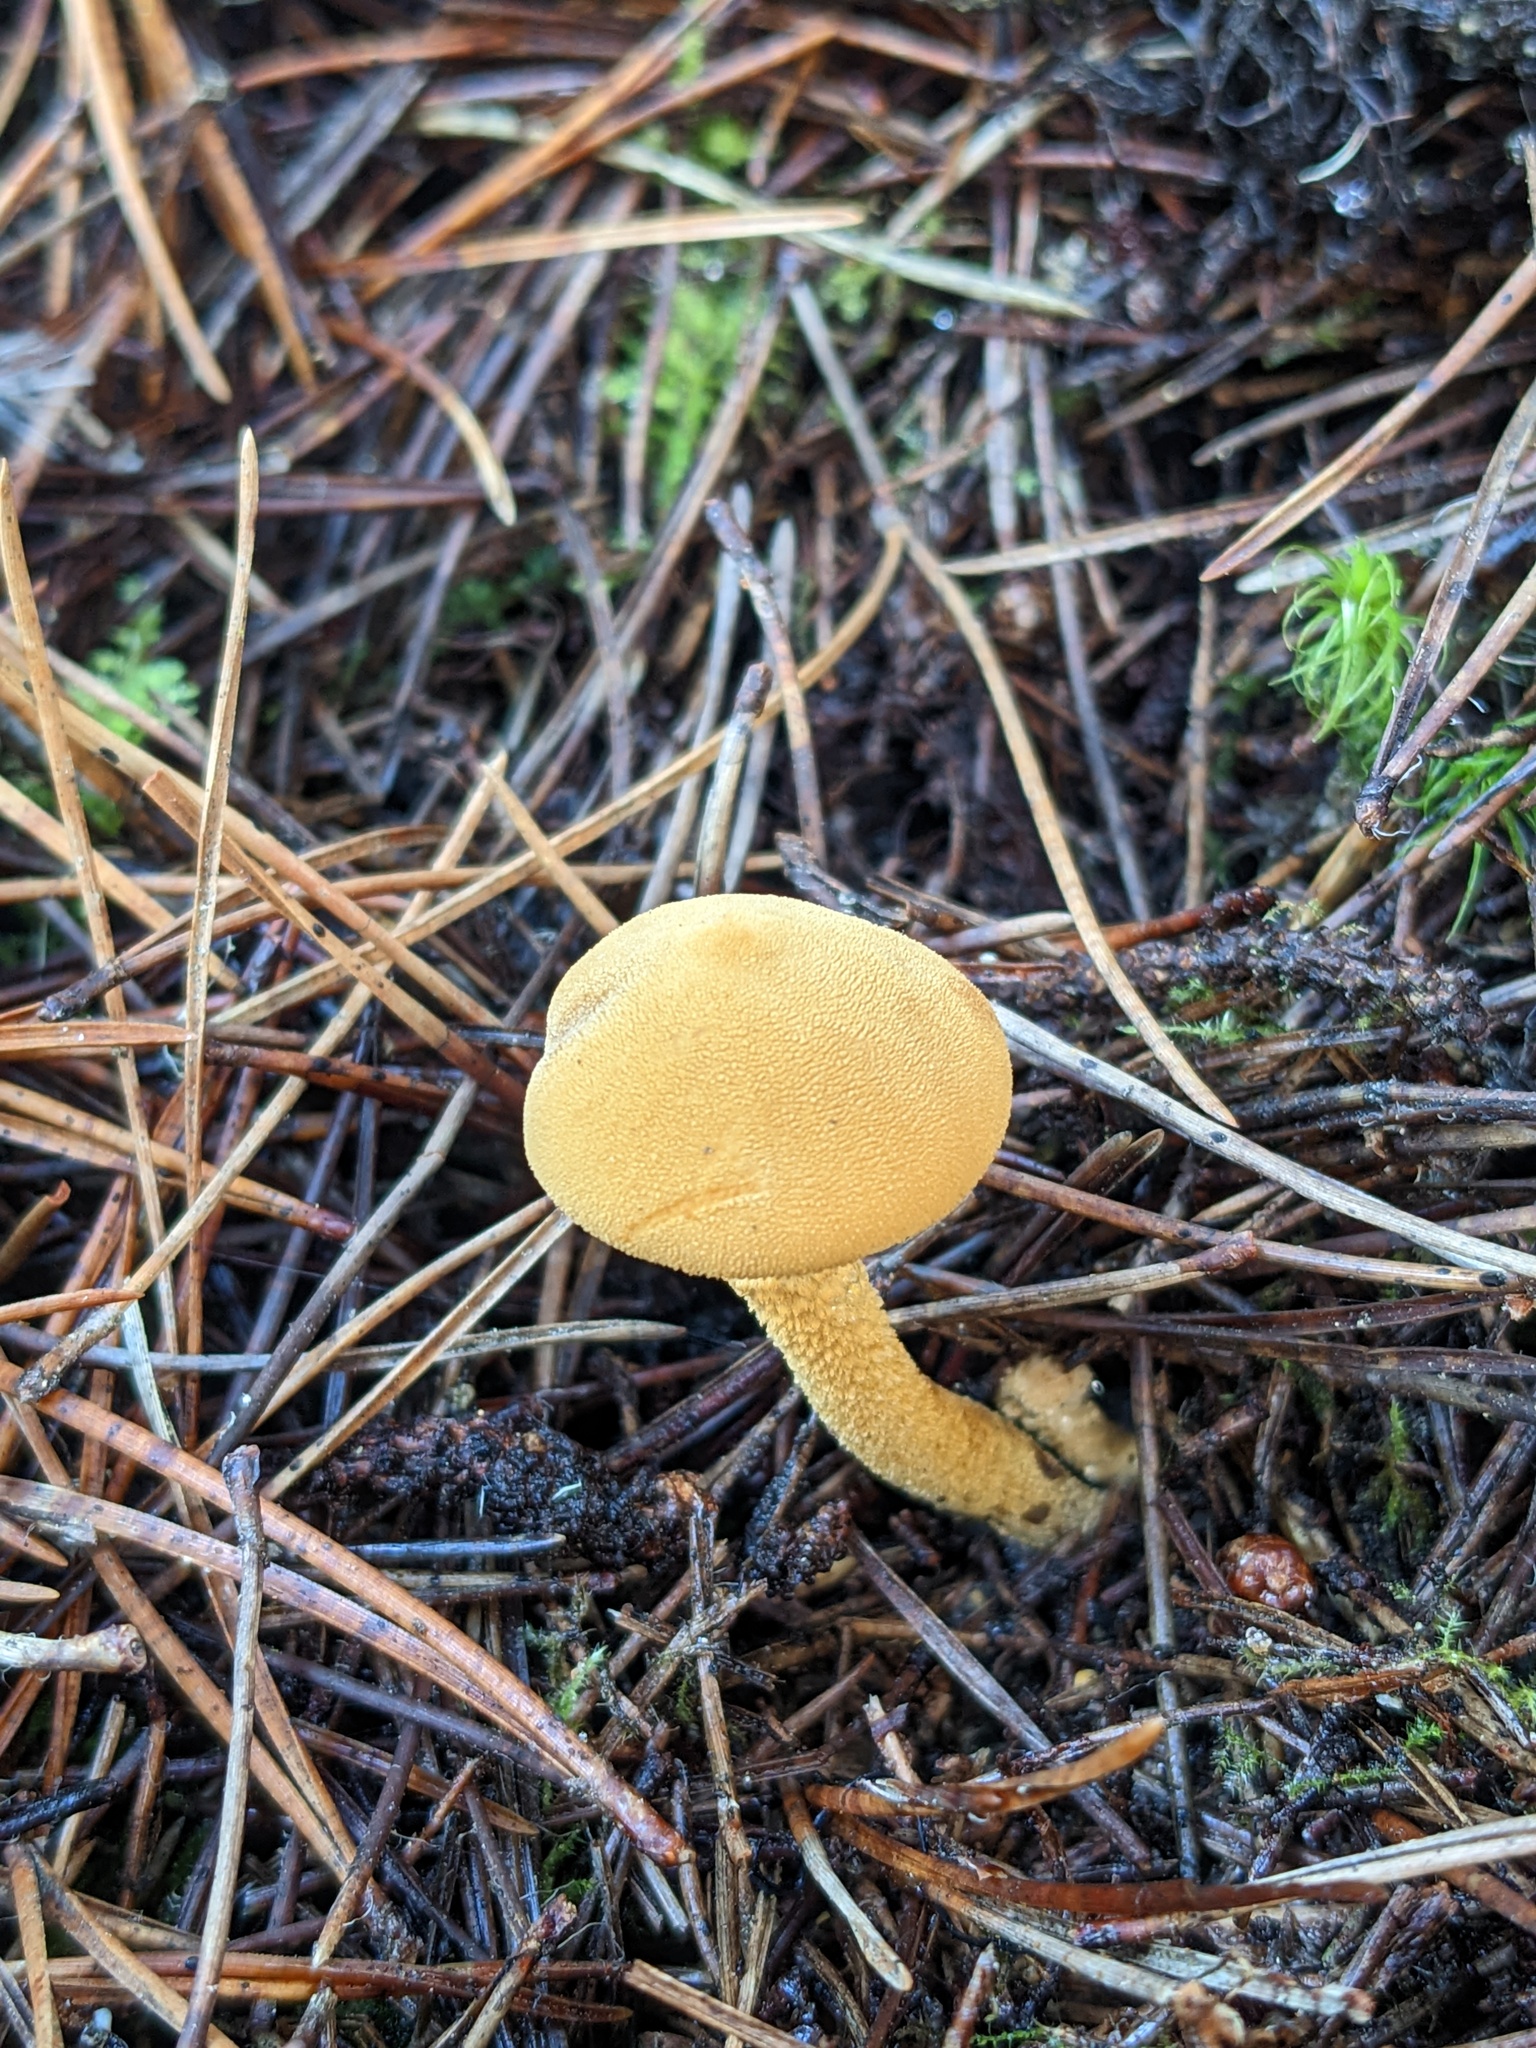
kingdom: Fungi
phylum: Basidiomycota
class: Agaricomycetes
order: Agaricales
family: Tricholomataceae
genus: Cystoderma
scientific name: Cystoderma amianthinum
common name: Earthy powdercap
